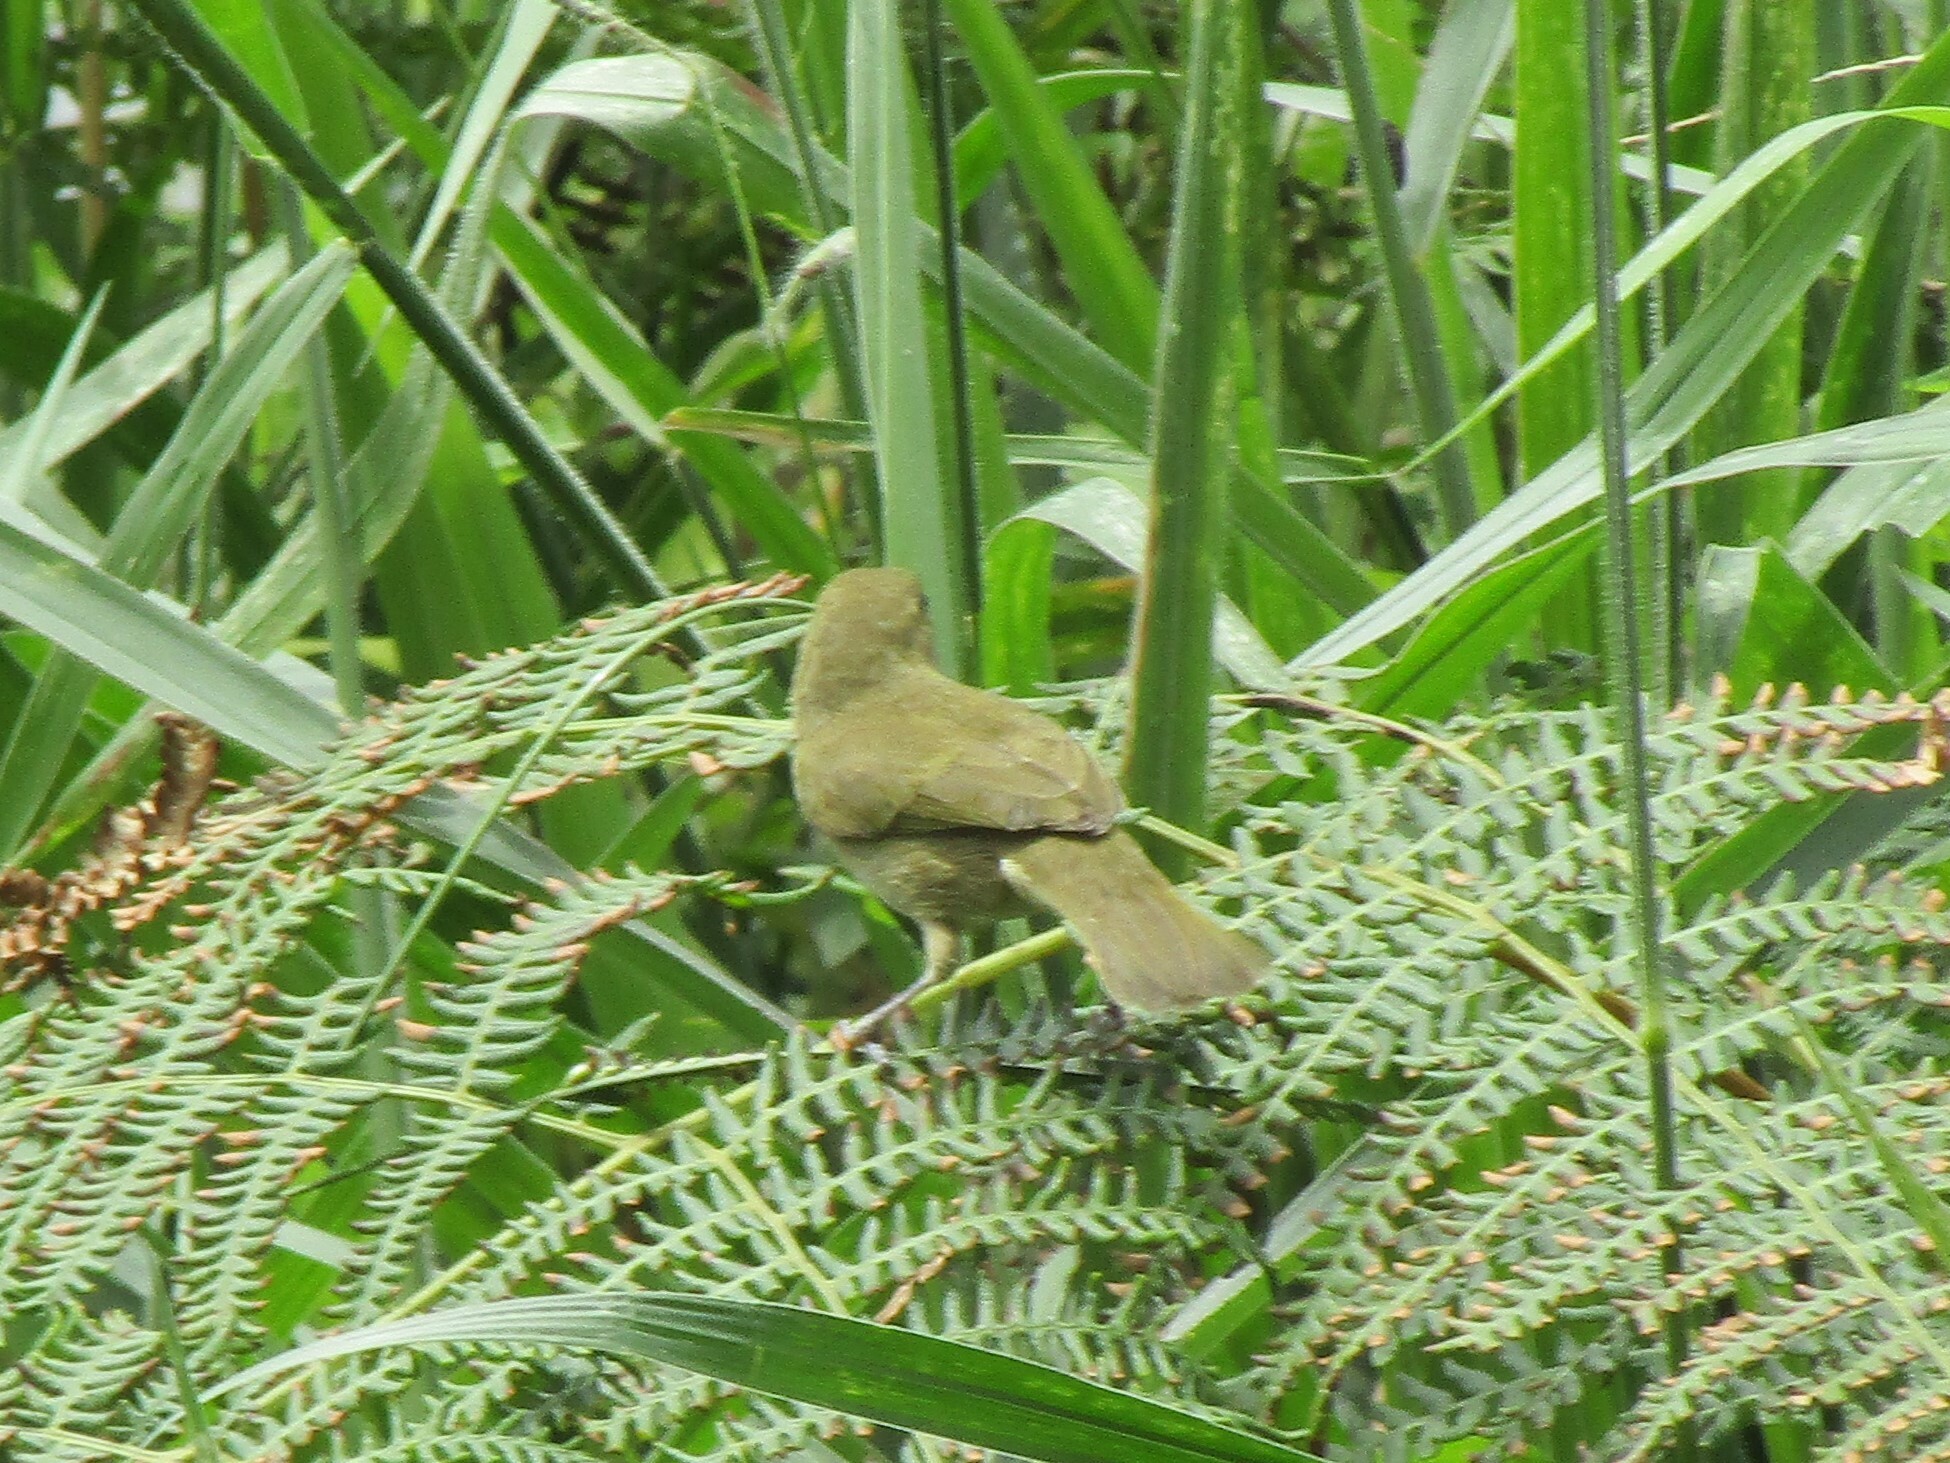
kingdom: Animalia
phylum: Chordata
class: Aves
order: Passeriformes
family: Thraupidae
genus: Tiaris
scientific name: Tiaris olivaceus
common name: Yellow-faced grassquit
